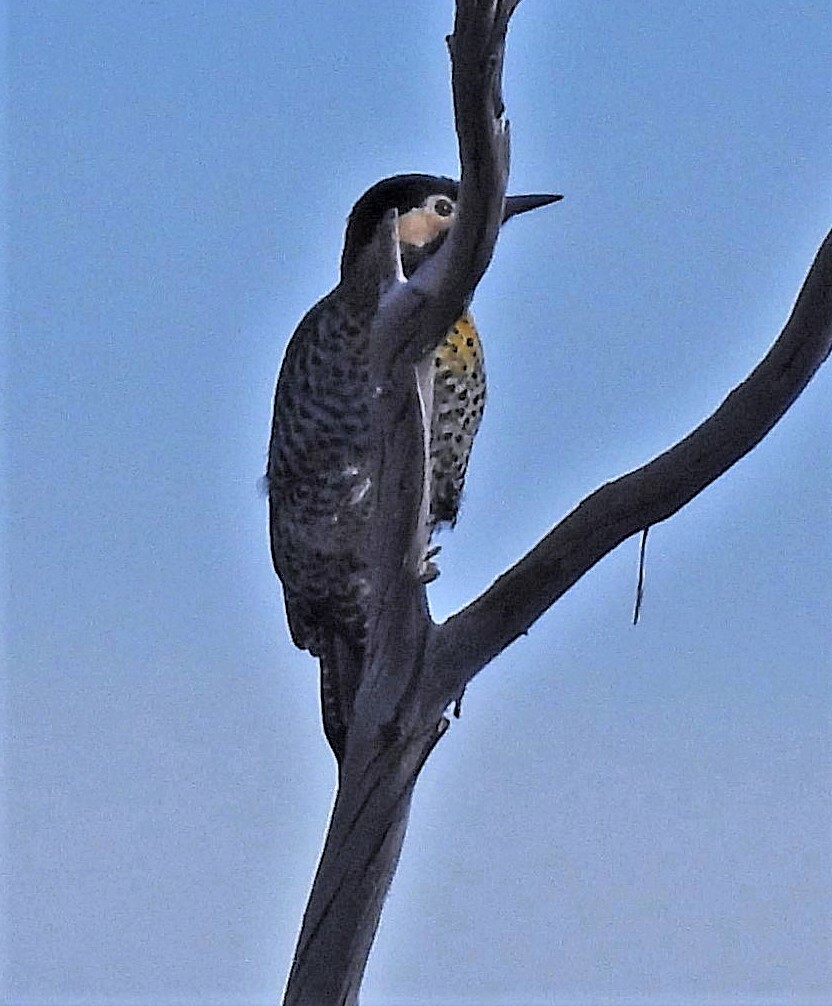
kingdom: Animalia
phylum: Chordata
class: Aves
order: Piciformes
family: Picidae
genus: Colaptes
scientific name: Colaptes melanochloros
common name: Green-barred woodpecker
